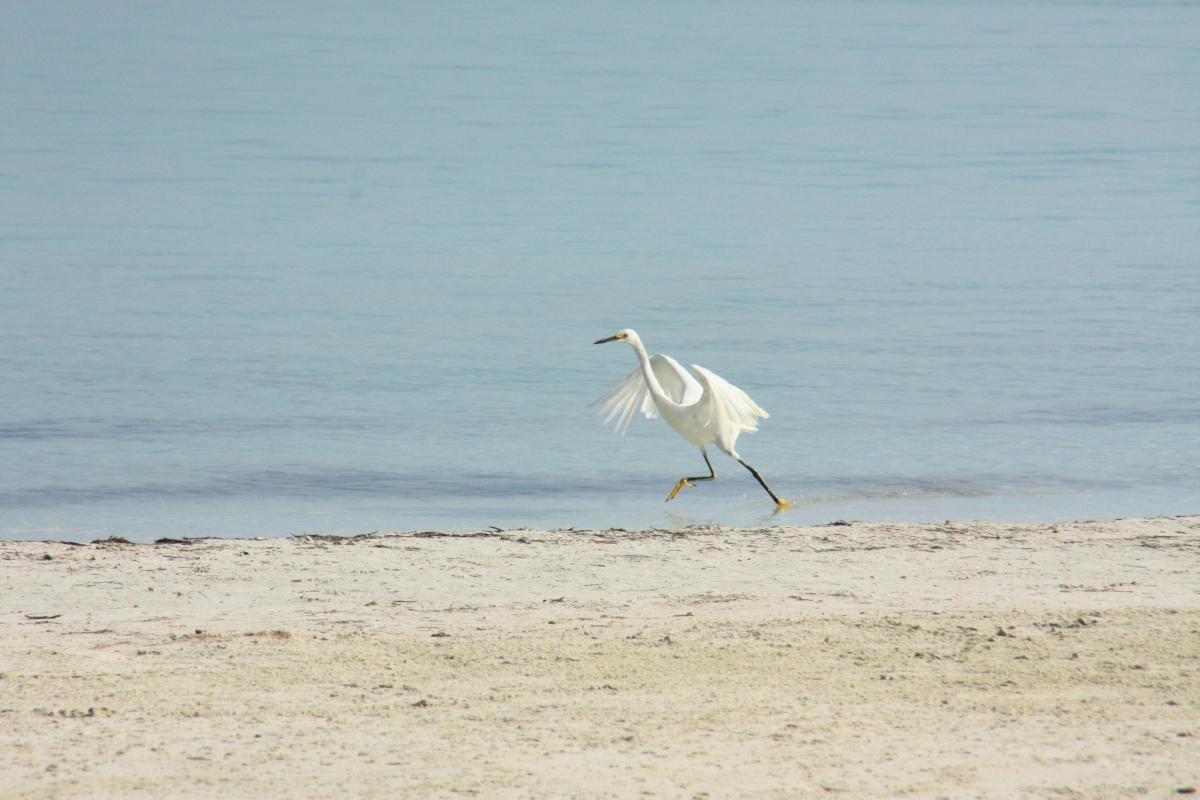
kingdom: Animalia
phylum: Chordata
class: Aves
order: Pelecaniformes
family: Ardeidae
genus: Egretta
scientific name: Egretta thula
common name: Snowy egret
